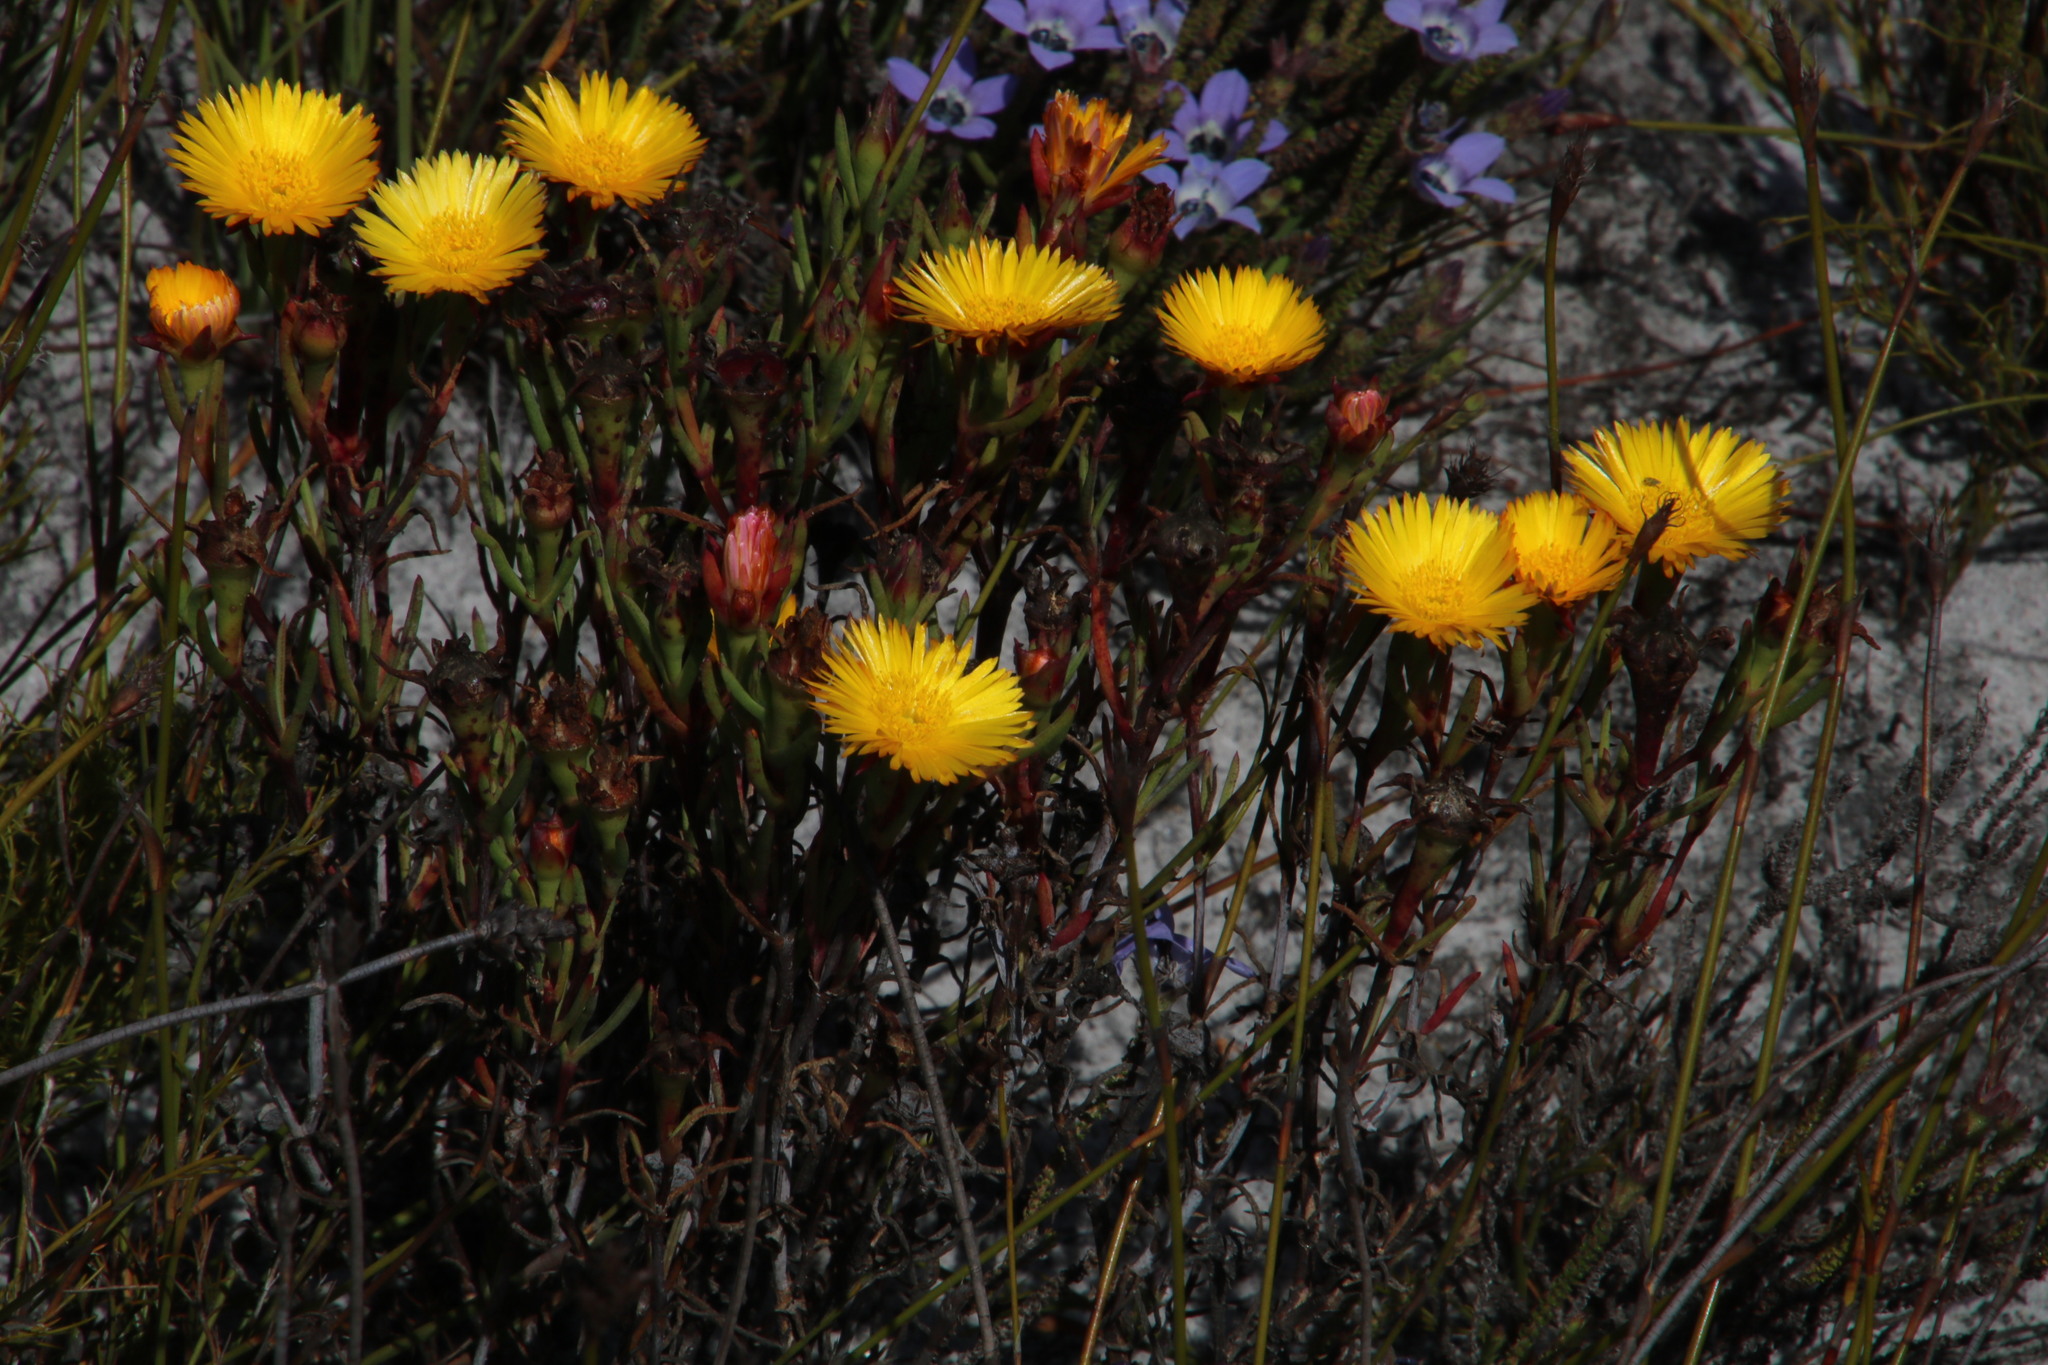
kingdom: Plantae
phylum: Tracheophyta
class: Magnoliopsida
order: Caryophyllales
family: Aizoaceae
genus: Lampranthus
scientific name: Lampranthus bicolor
